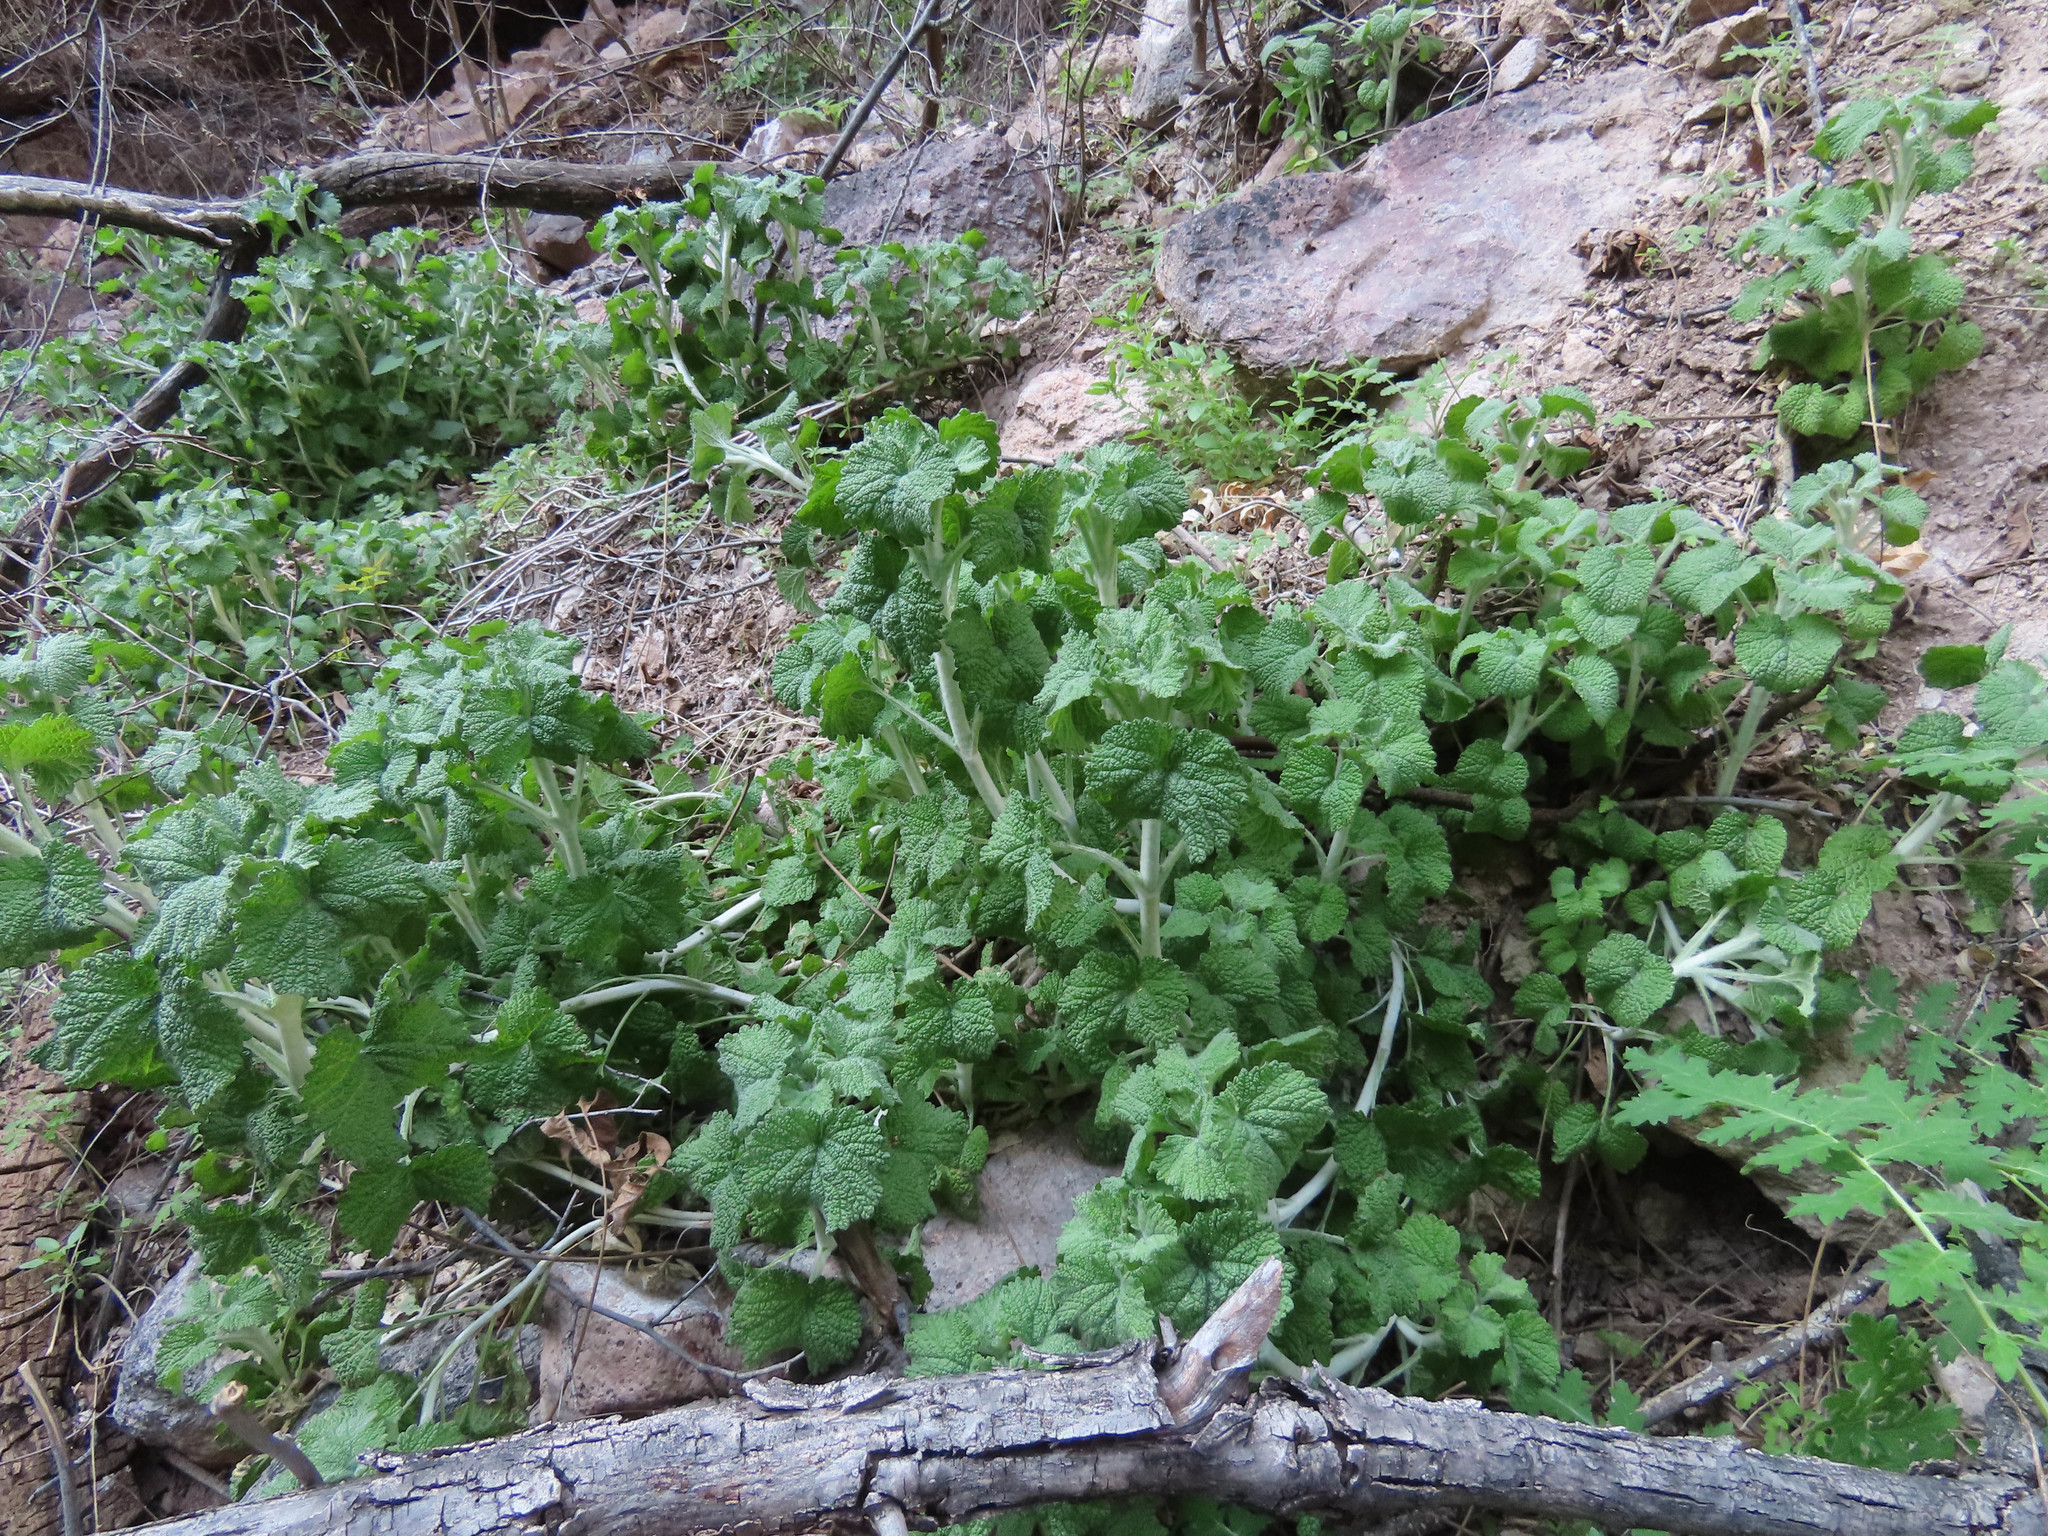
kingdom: Plantae
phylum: Tracheophyta
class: Magnoliopsida
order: Lamiales
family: Lamiaceae
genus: Marrubium
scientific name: Marrubium vulgare
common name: Horehound
